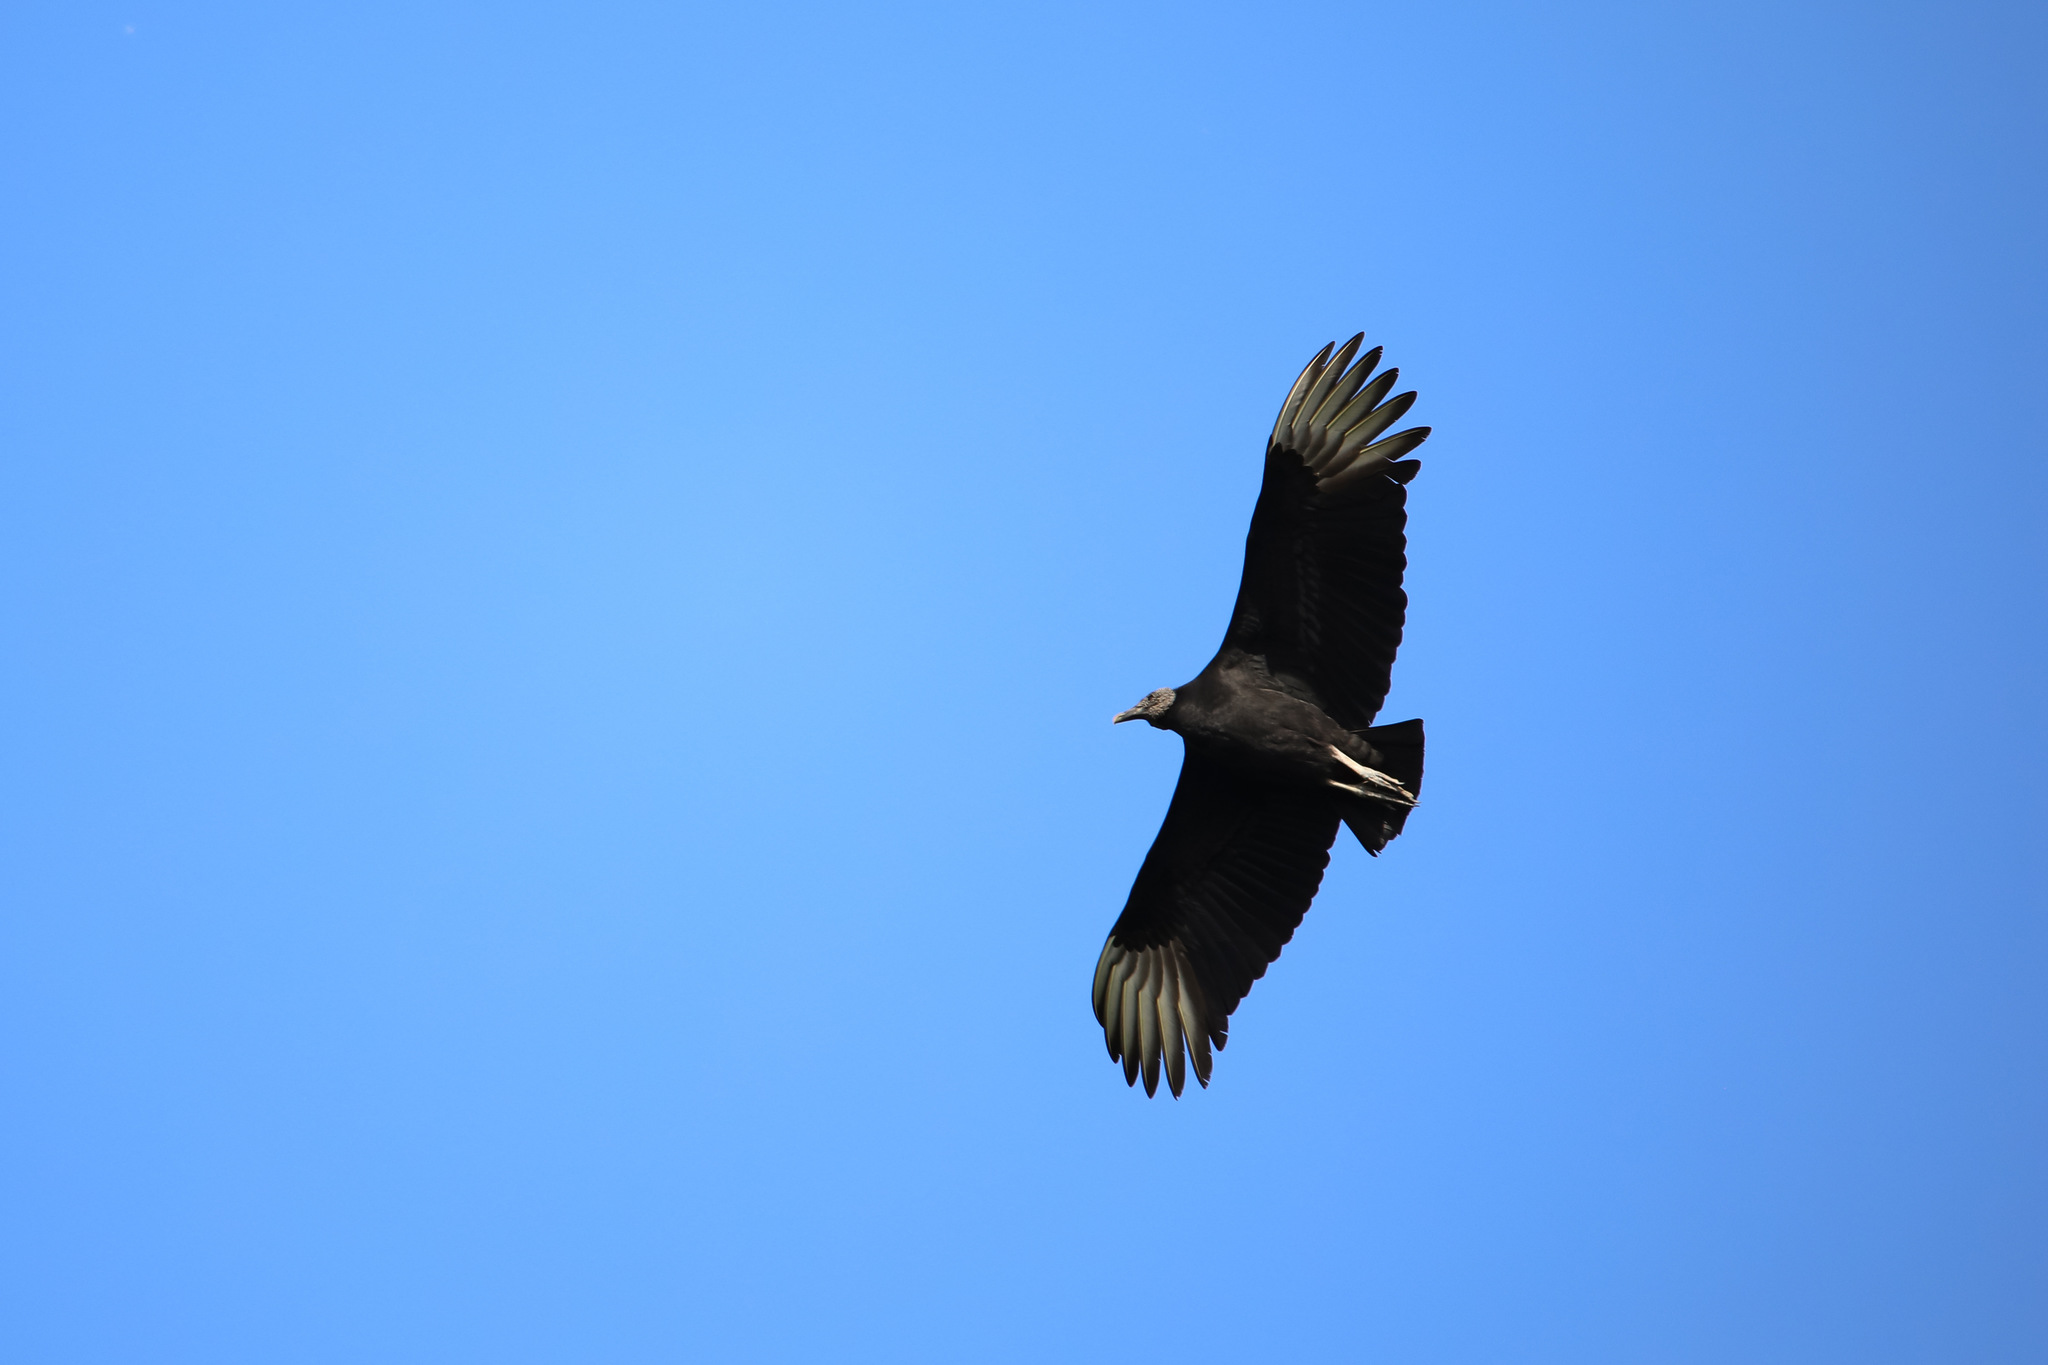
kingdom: Animalia
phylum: Chordata
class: Aves
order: Accipitriformes
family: Cathartidae
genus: Coragyps
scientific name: Coragyps atratus
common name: Black vulture
